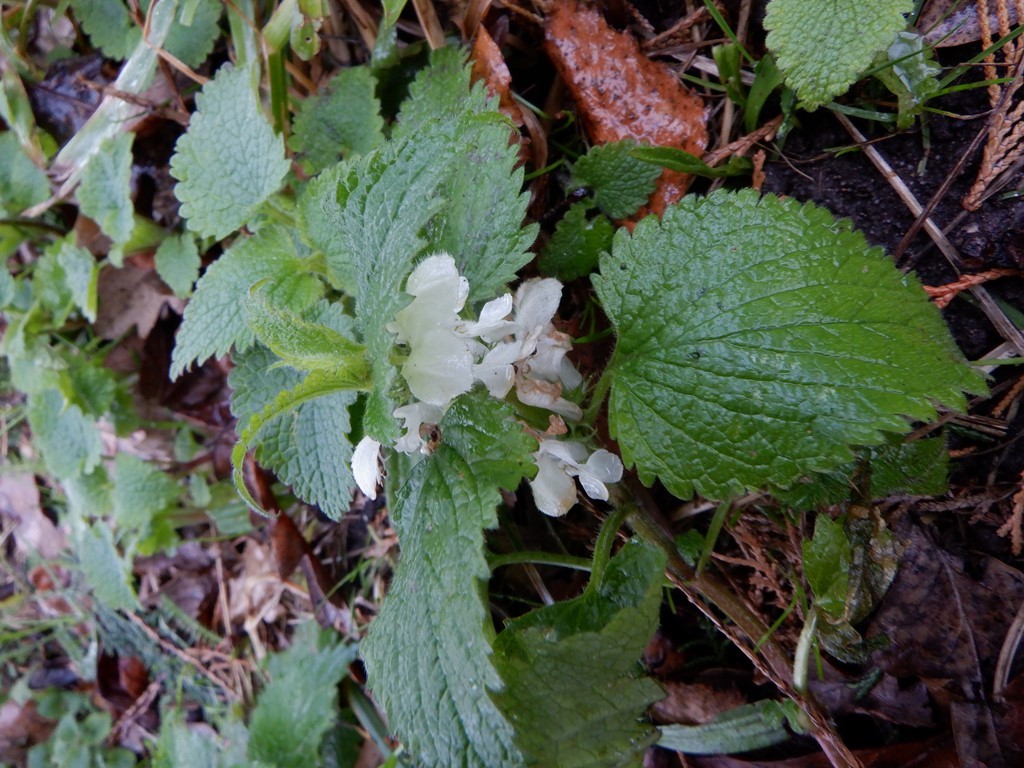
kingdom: Plantae
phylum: Tracheophyta
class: Magnoliopsida
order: Lamiales
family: Lamiaceae
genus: Lamium
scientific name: Lamium album
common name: White dead-nettle
